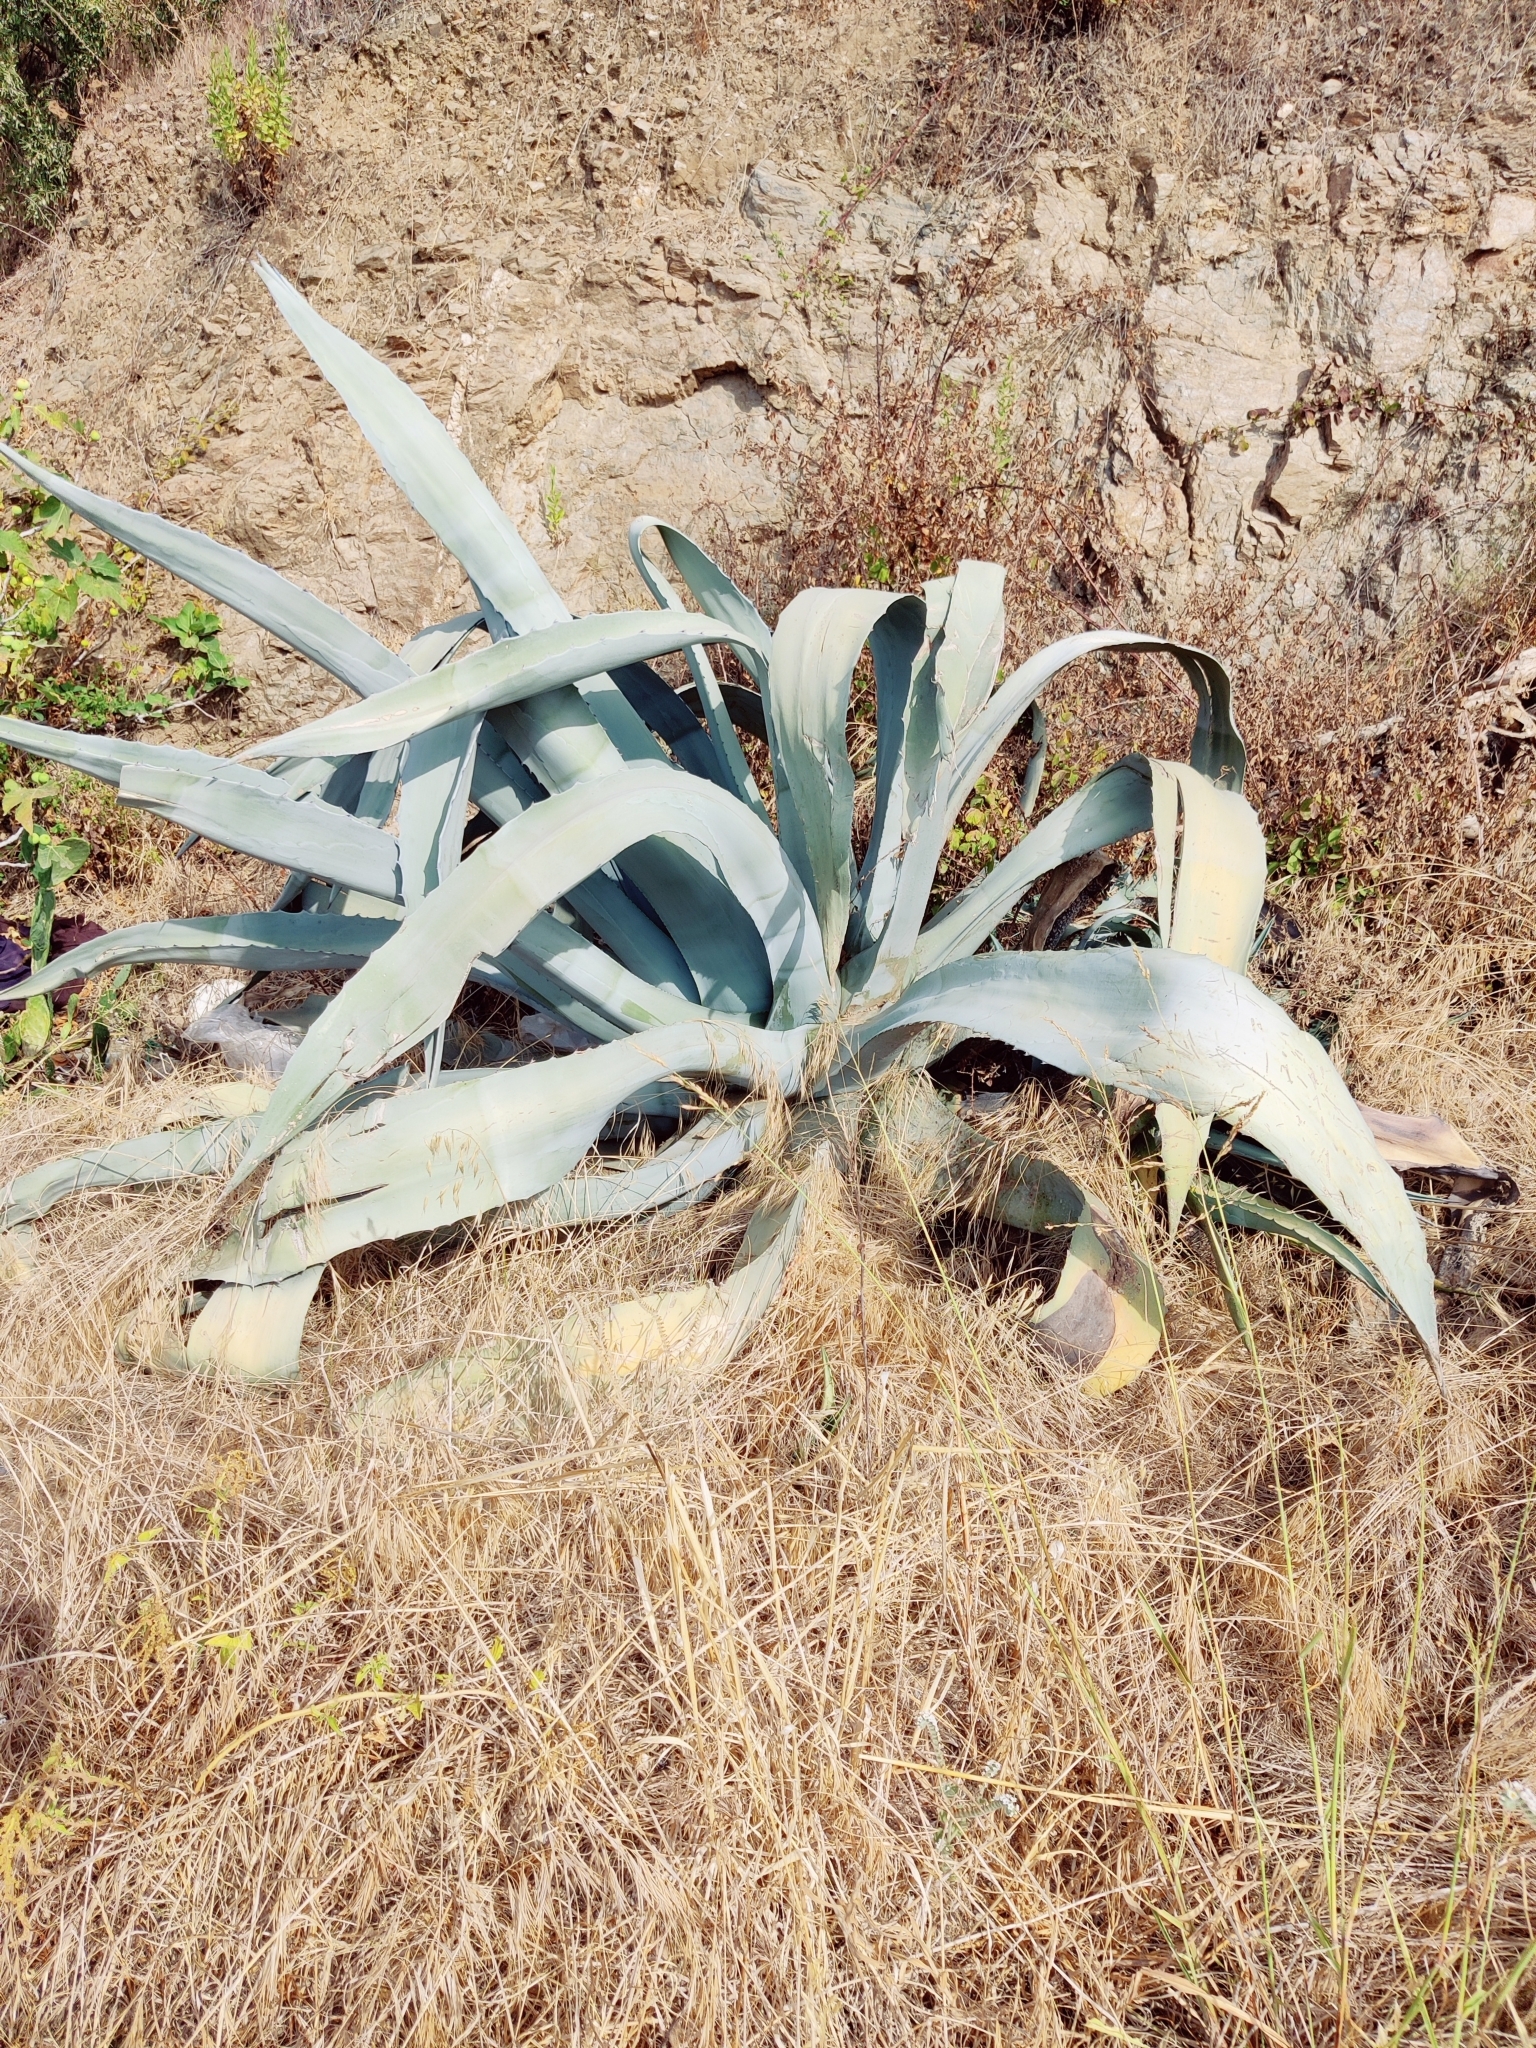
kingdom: Plantae
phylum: Tracheophyta
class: Liliopsida
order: Asparagales
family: Asparagaceae
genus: Agave
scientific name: Agave americana
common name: Centuryplant
